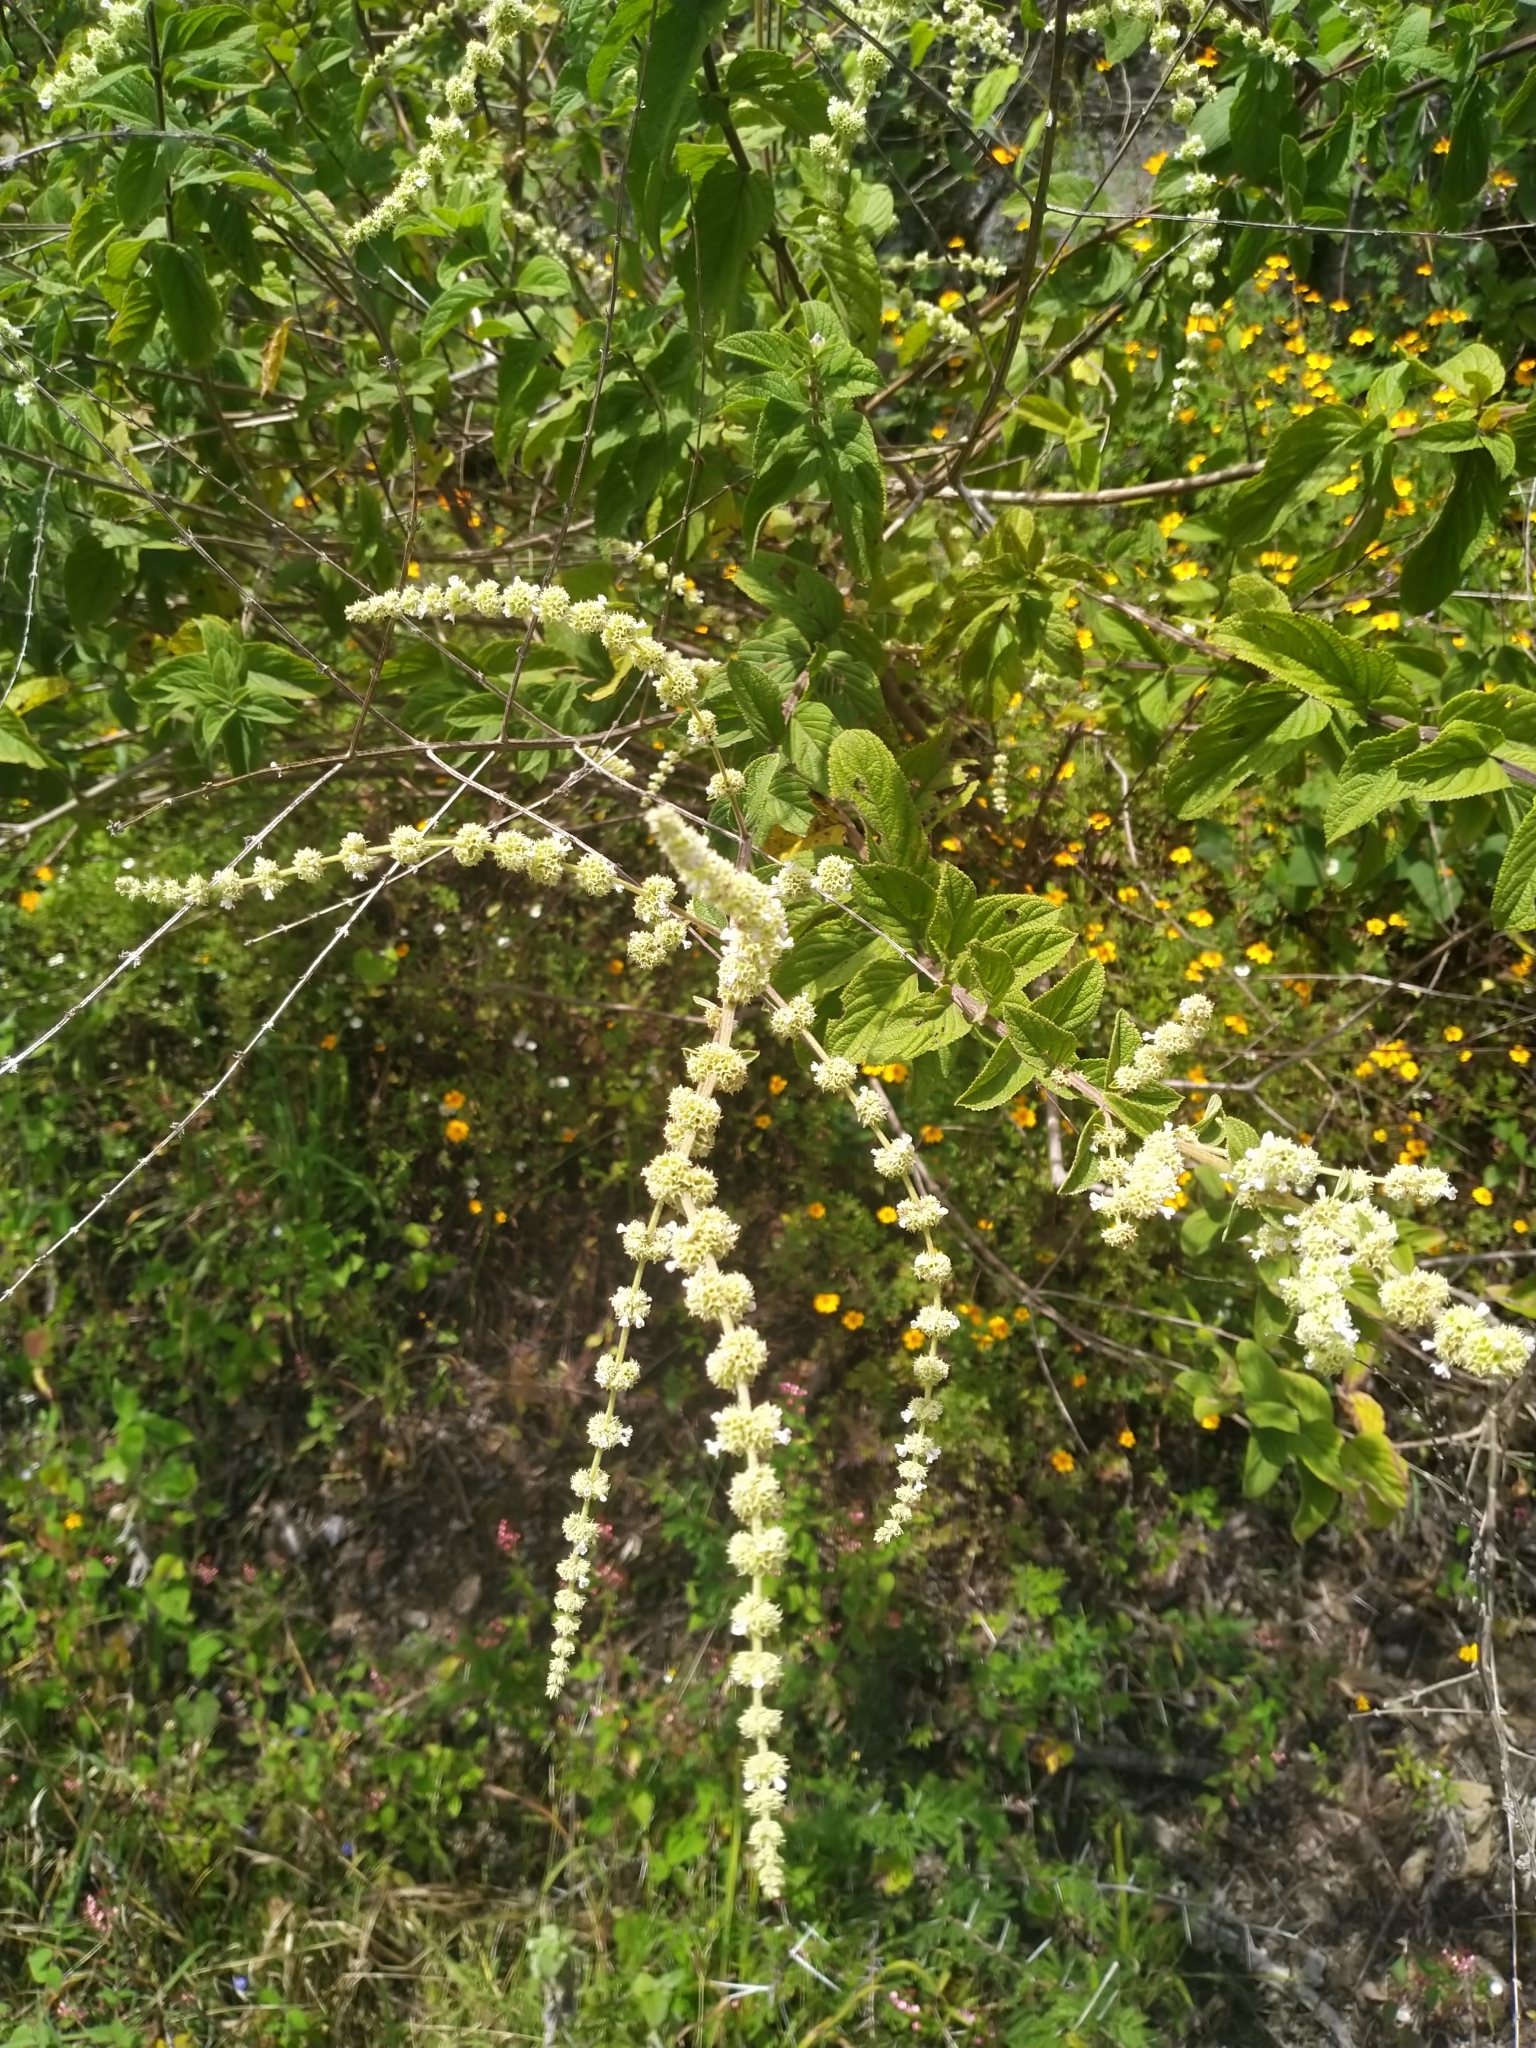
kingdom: Plantae
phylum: Tracheophyta
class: Magnoliopsida
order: Lamiales
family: Lamiaceae
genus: Asterohyptis
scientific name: Asterohyptis stellulata
